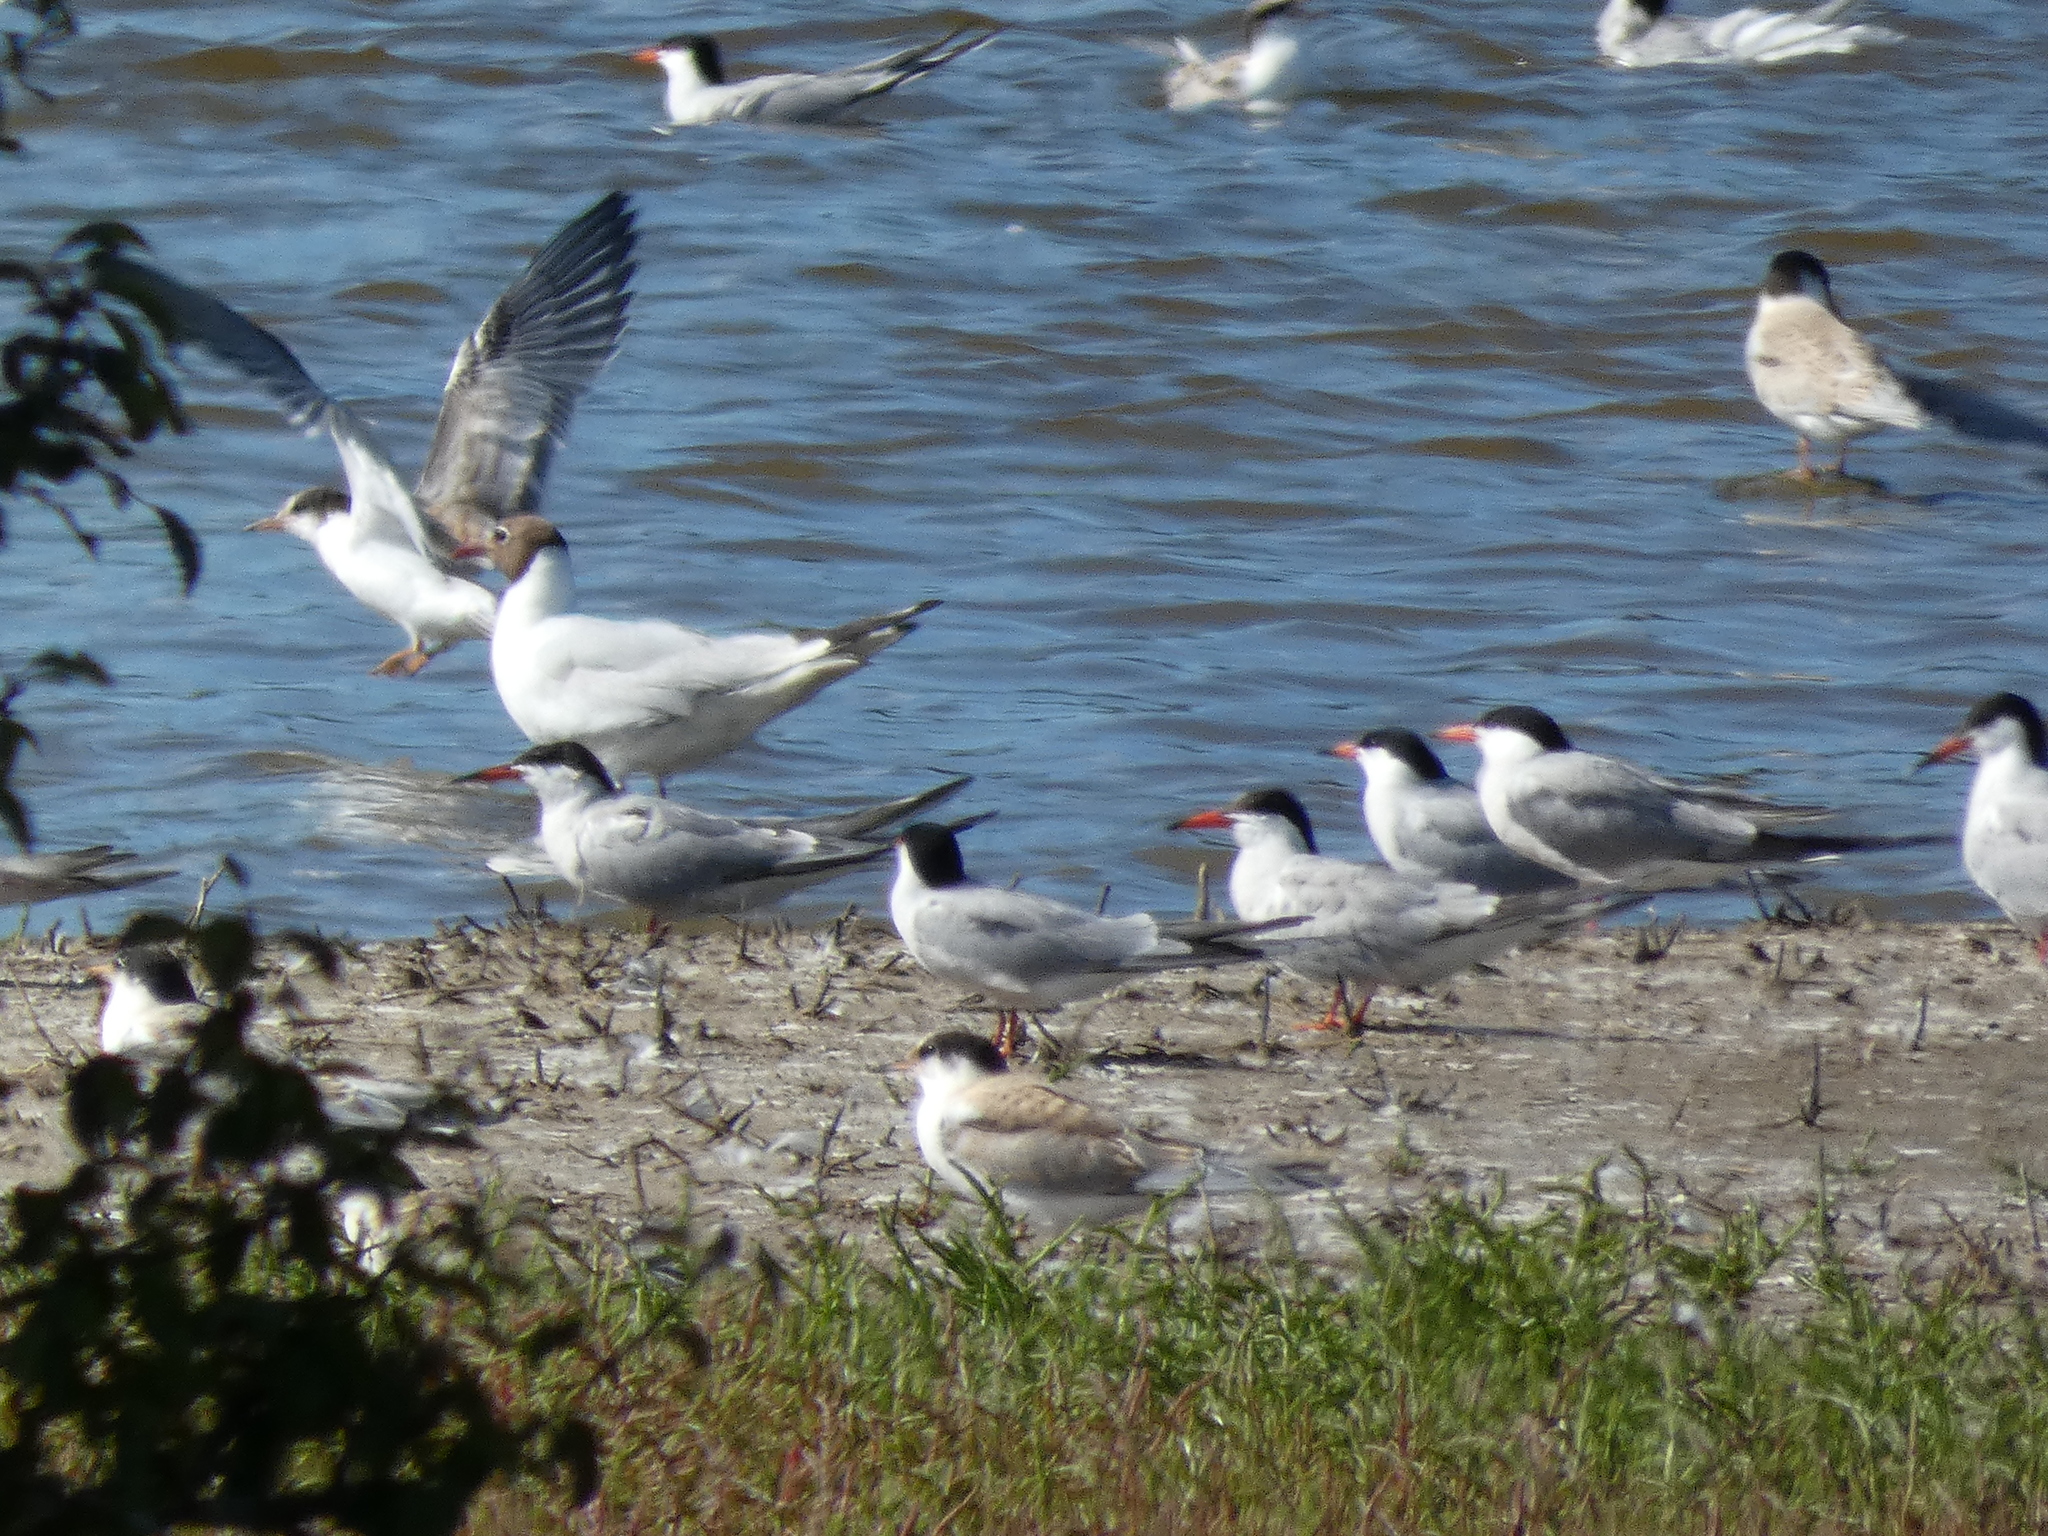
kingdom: Animalia
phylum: Chordata
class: Aves
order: Charadriiformes
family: Laridae
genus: Chroicocephalus
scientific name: Chroicocephalus ridibundus
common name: Black-headed gull
